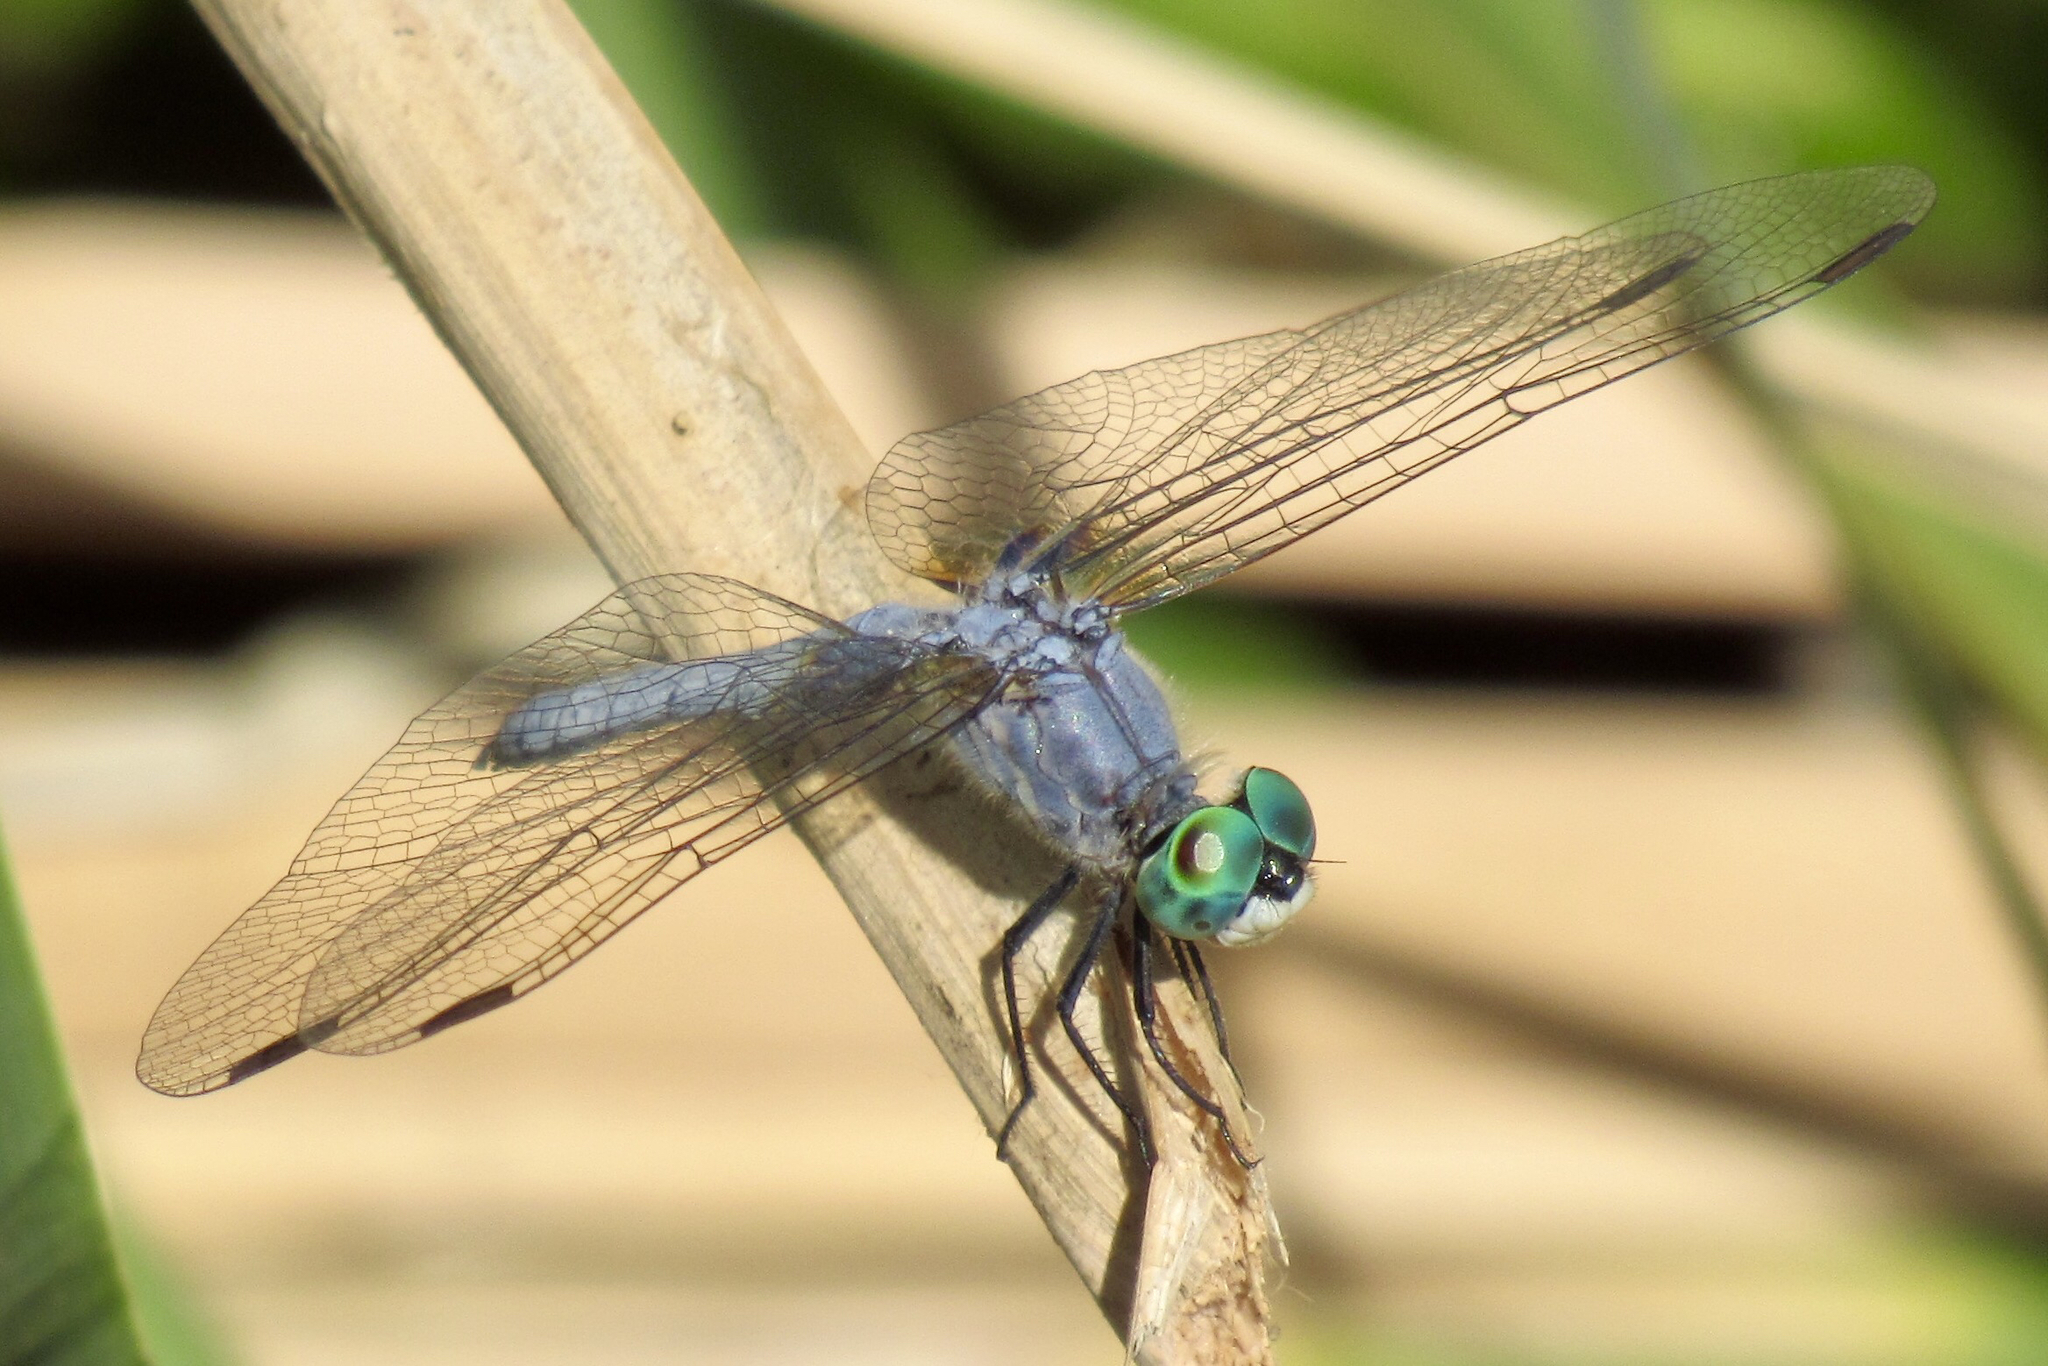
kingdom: Animalia
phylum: Arthropoda
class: Insecta
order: Odonata
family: Libellulidae
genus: Pachydiplax
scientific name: Pachydiplax longipennis
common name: Blue dasher
